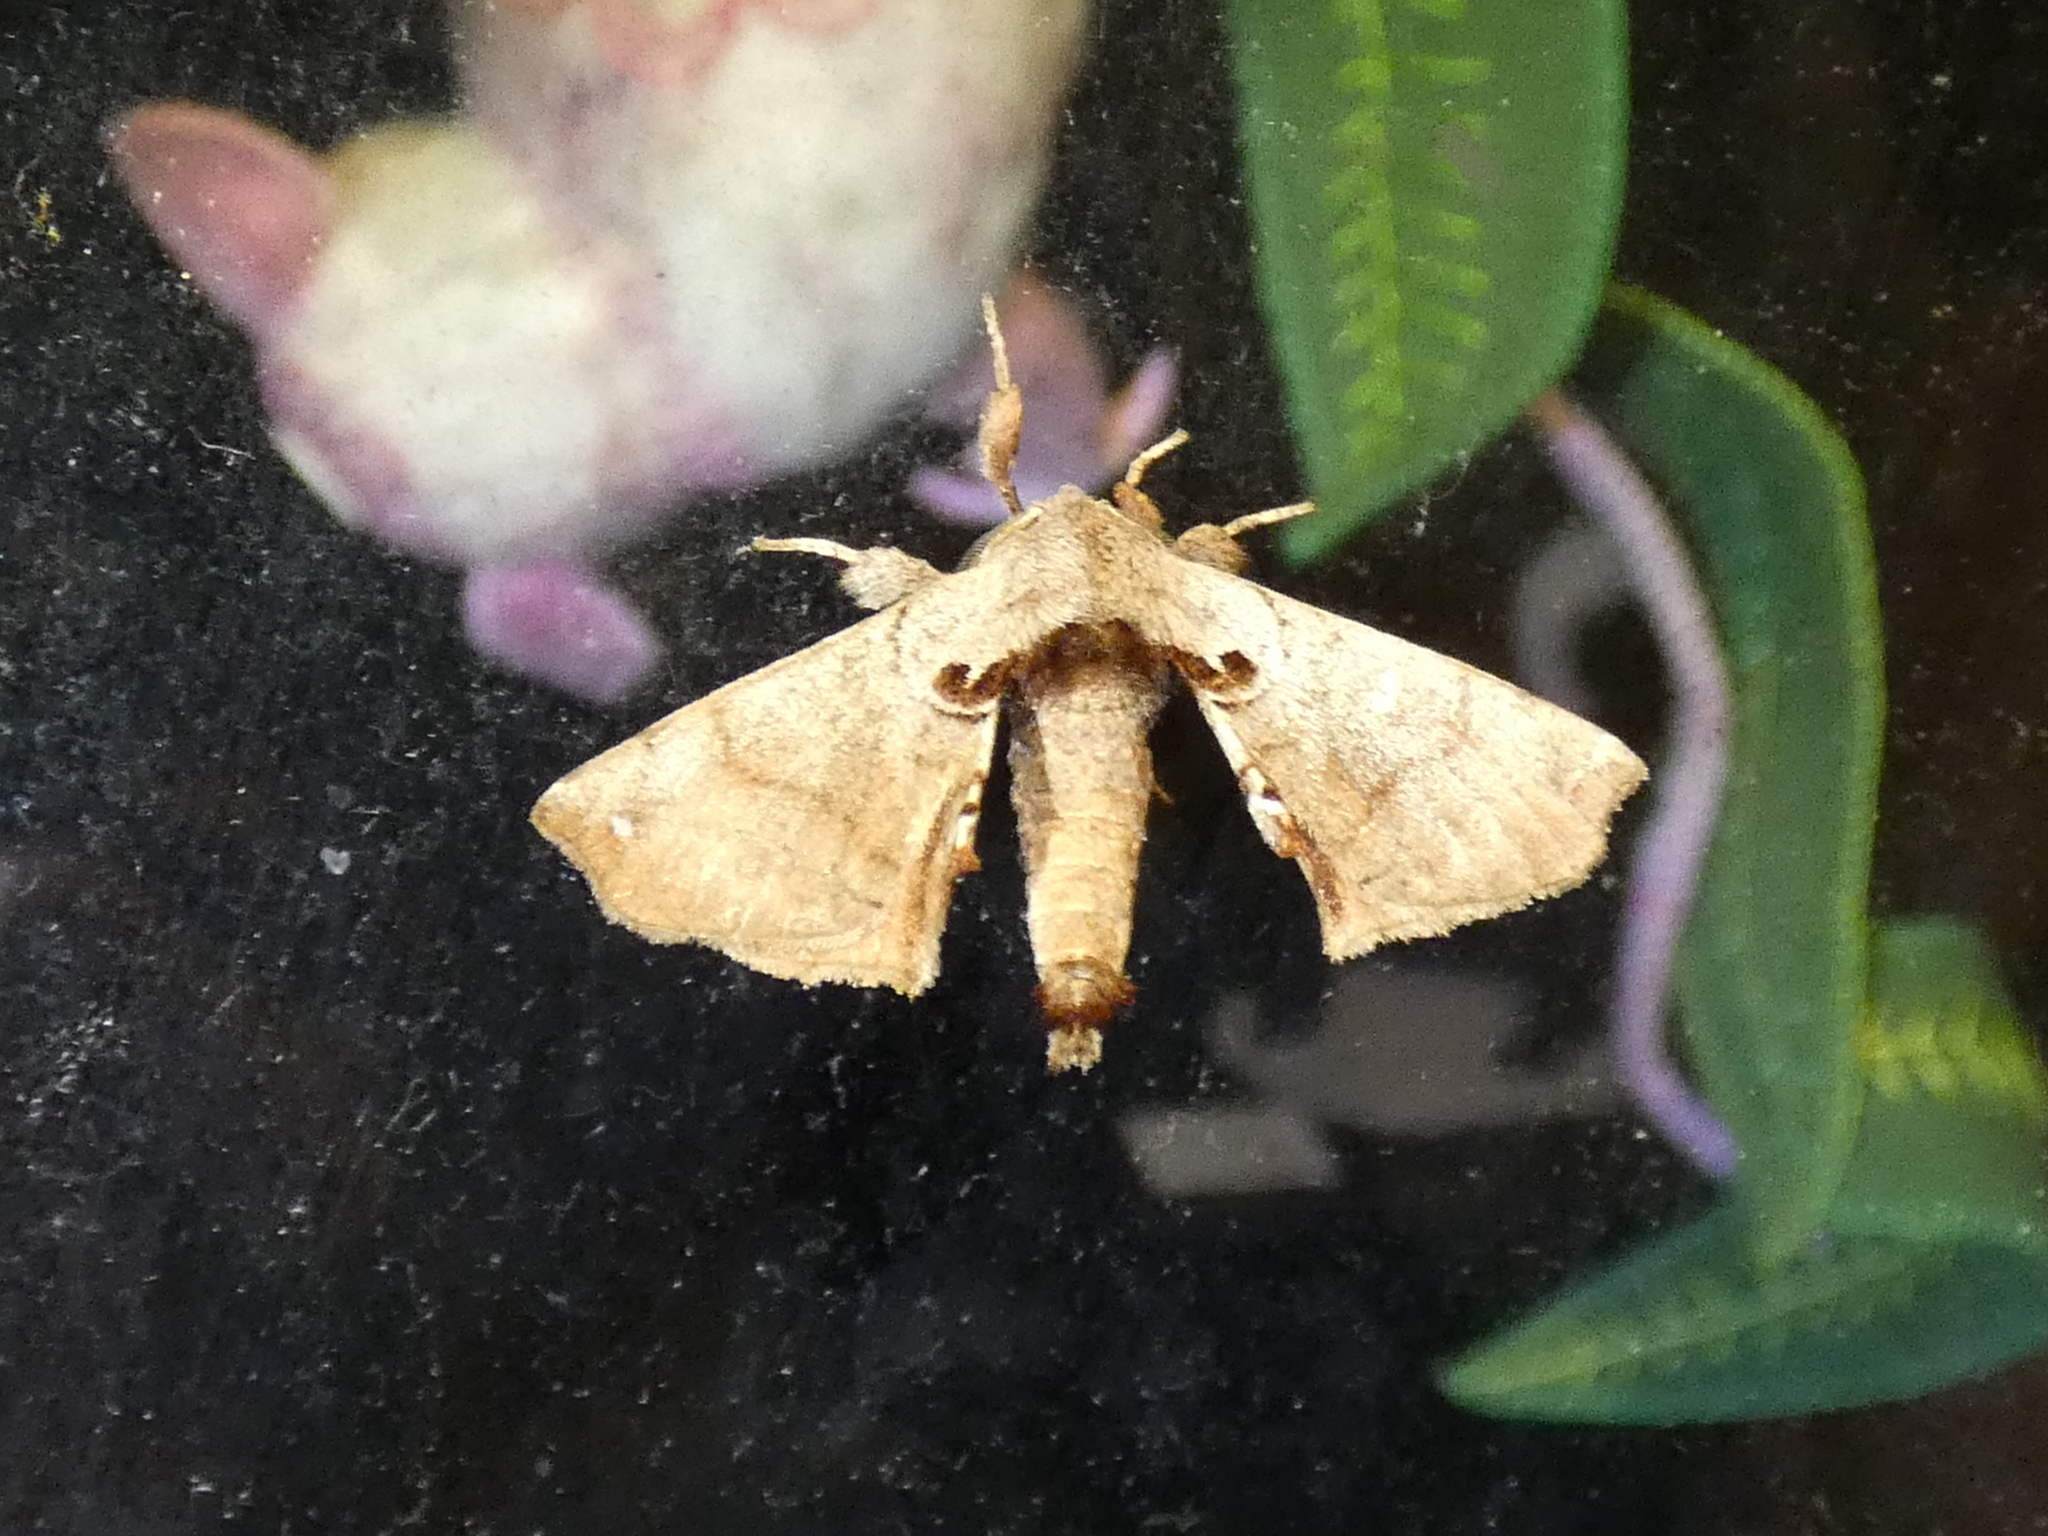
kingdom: Animalia
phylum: Arthropoda
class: Insecta
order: Lepidoptera
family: Apatelodidae
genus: Hygrochroa
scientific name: Hygrochroa Apatelodes torrefacta
